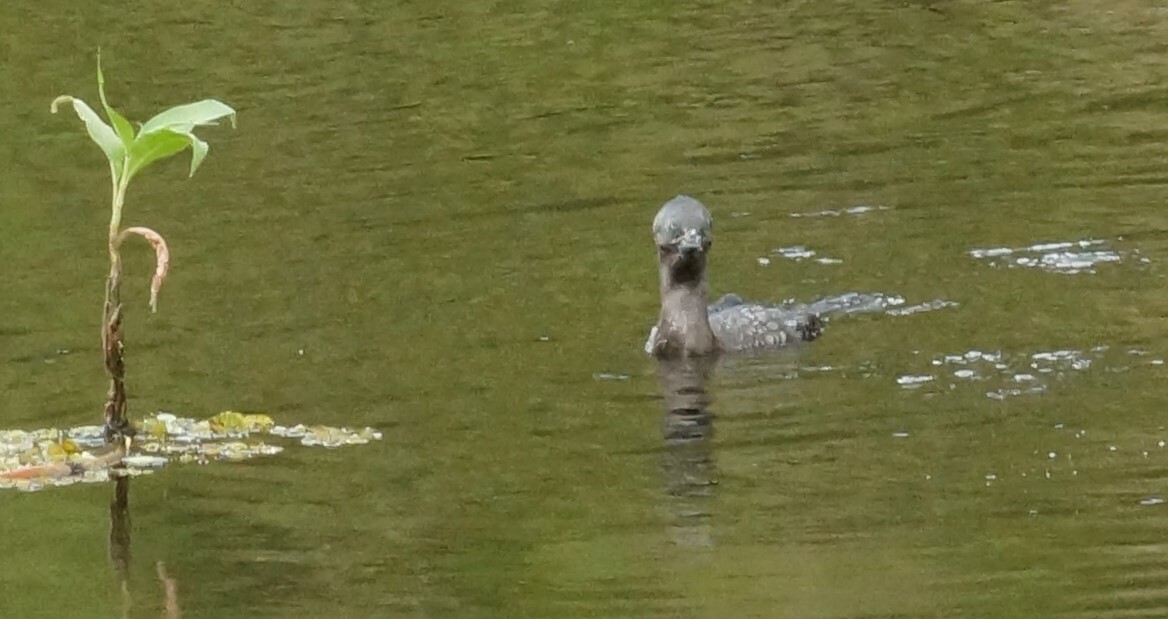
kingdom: Animalia
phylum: Chordata
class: Aves
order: Suliformes
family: Phalacrocoracidae
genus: Phalacrocorax
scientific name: Phalacrocorax sulcirostris
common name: Little black cormorant
